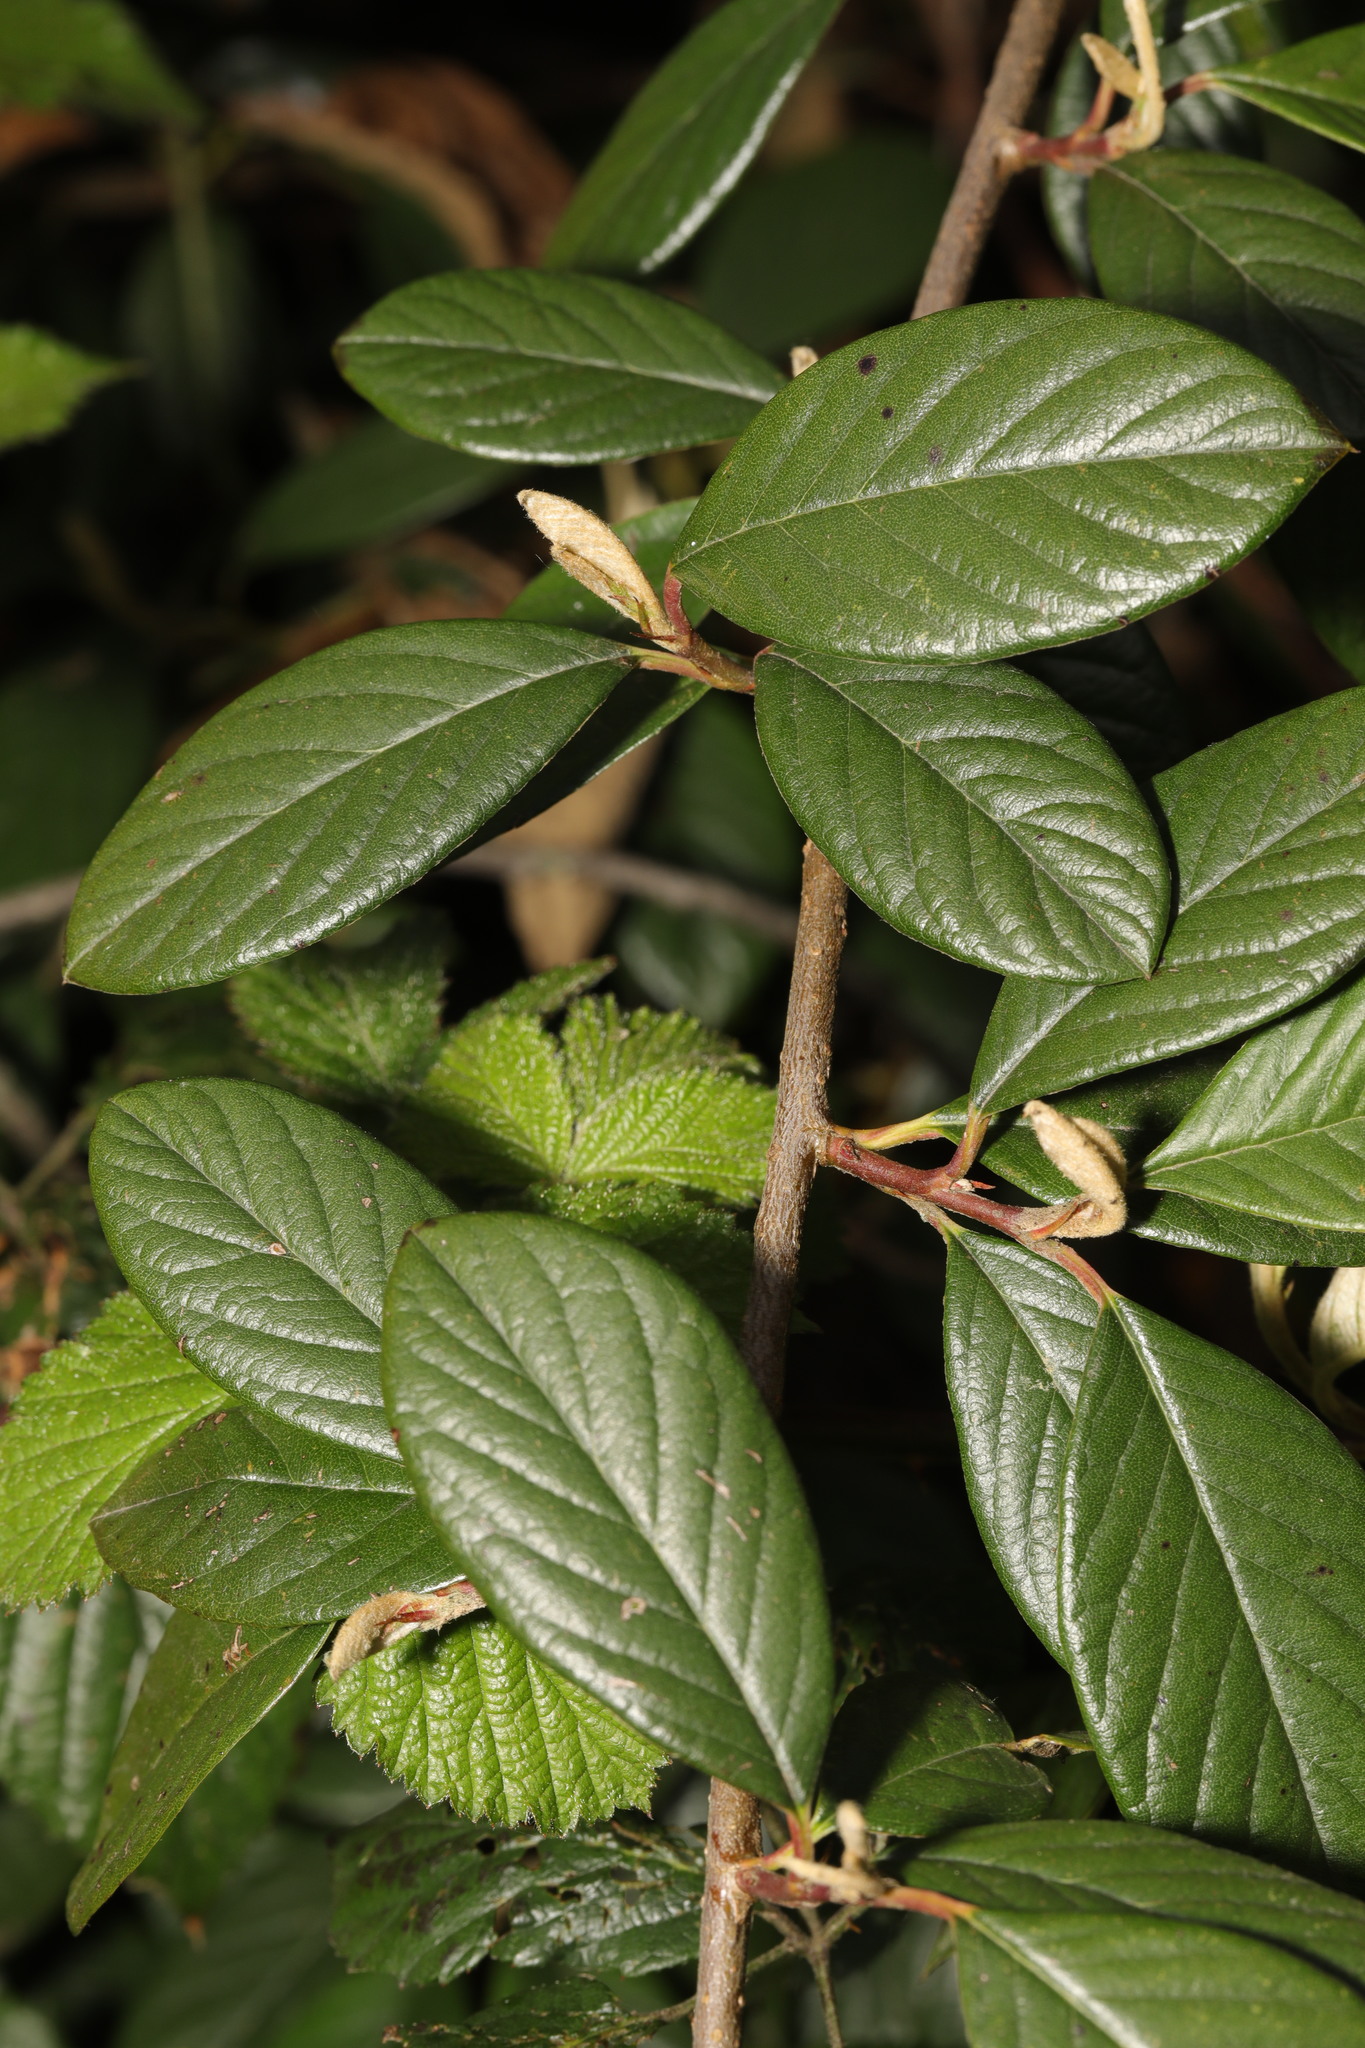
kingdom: Plantae
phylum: Tracheophyta
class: Magnoliopsida
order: Rosales
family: Rosaceae
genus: Cotoneaster
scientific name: Cotoneaster coriaceus
